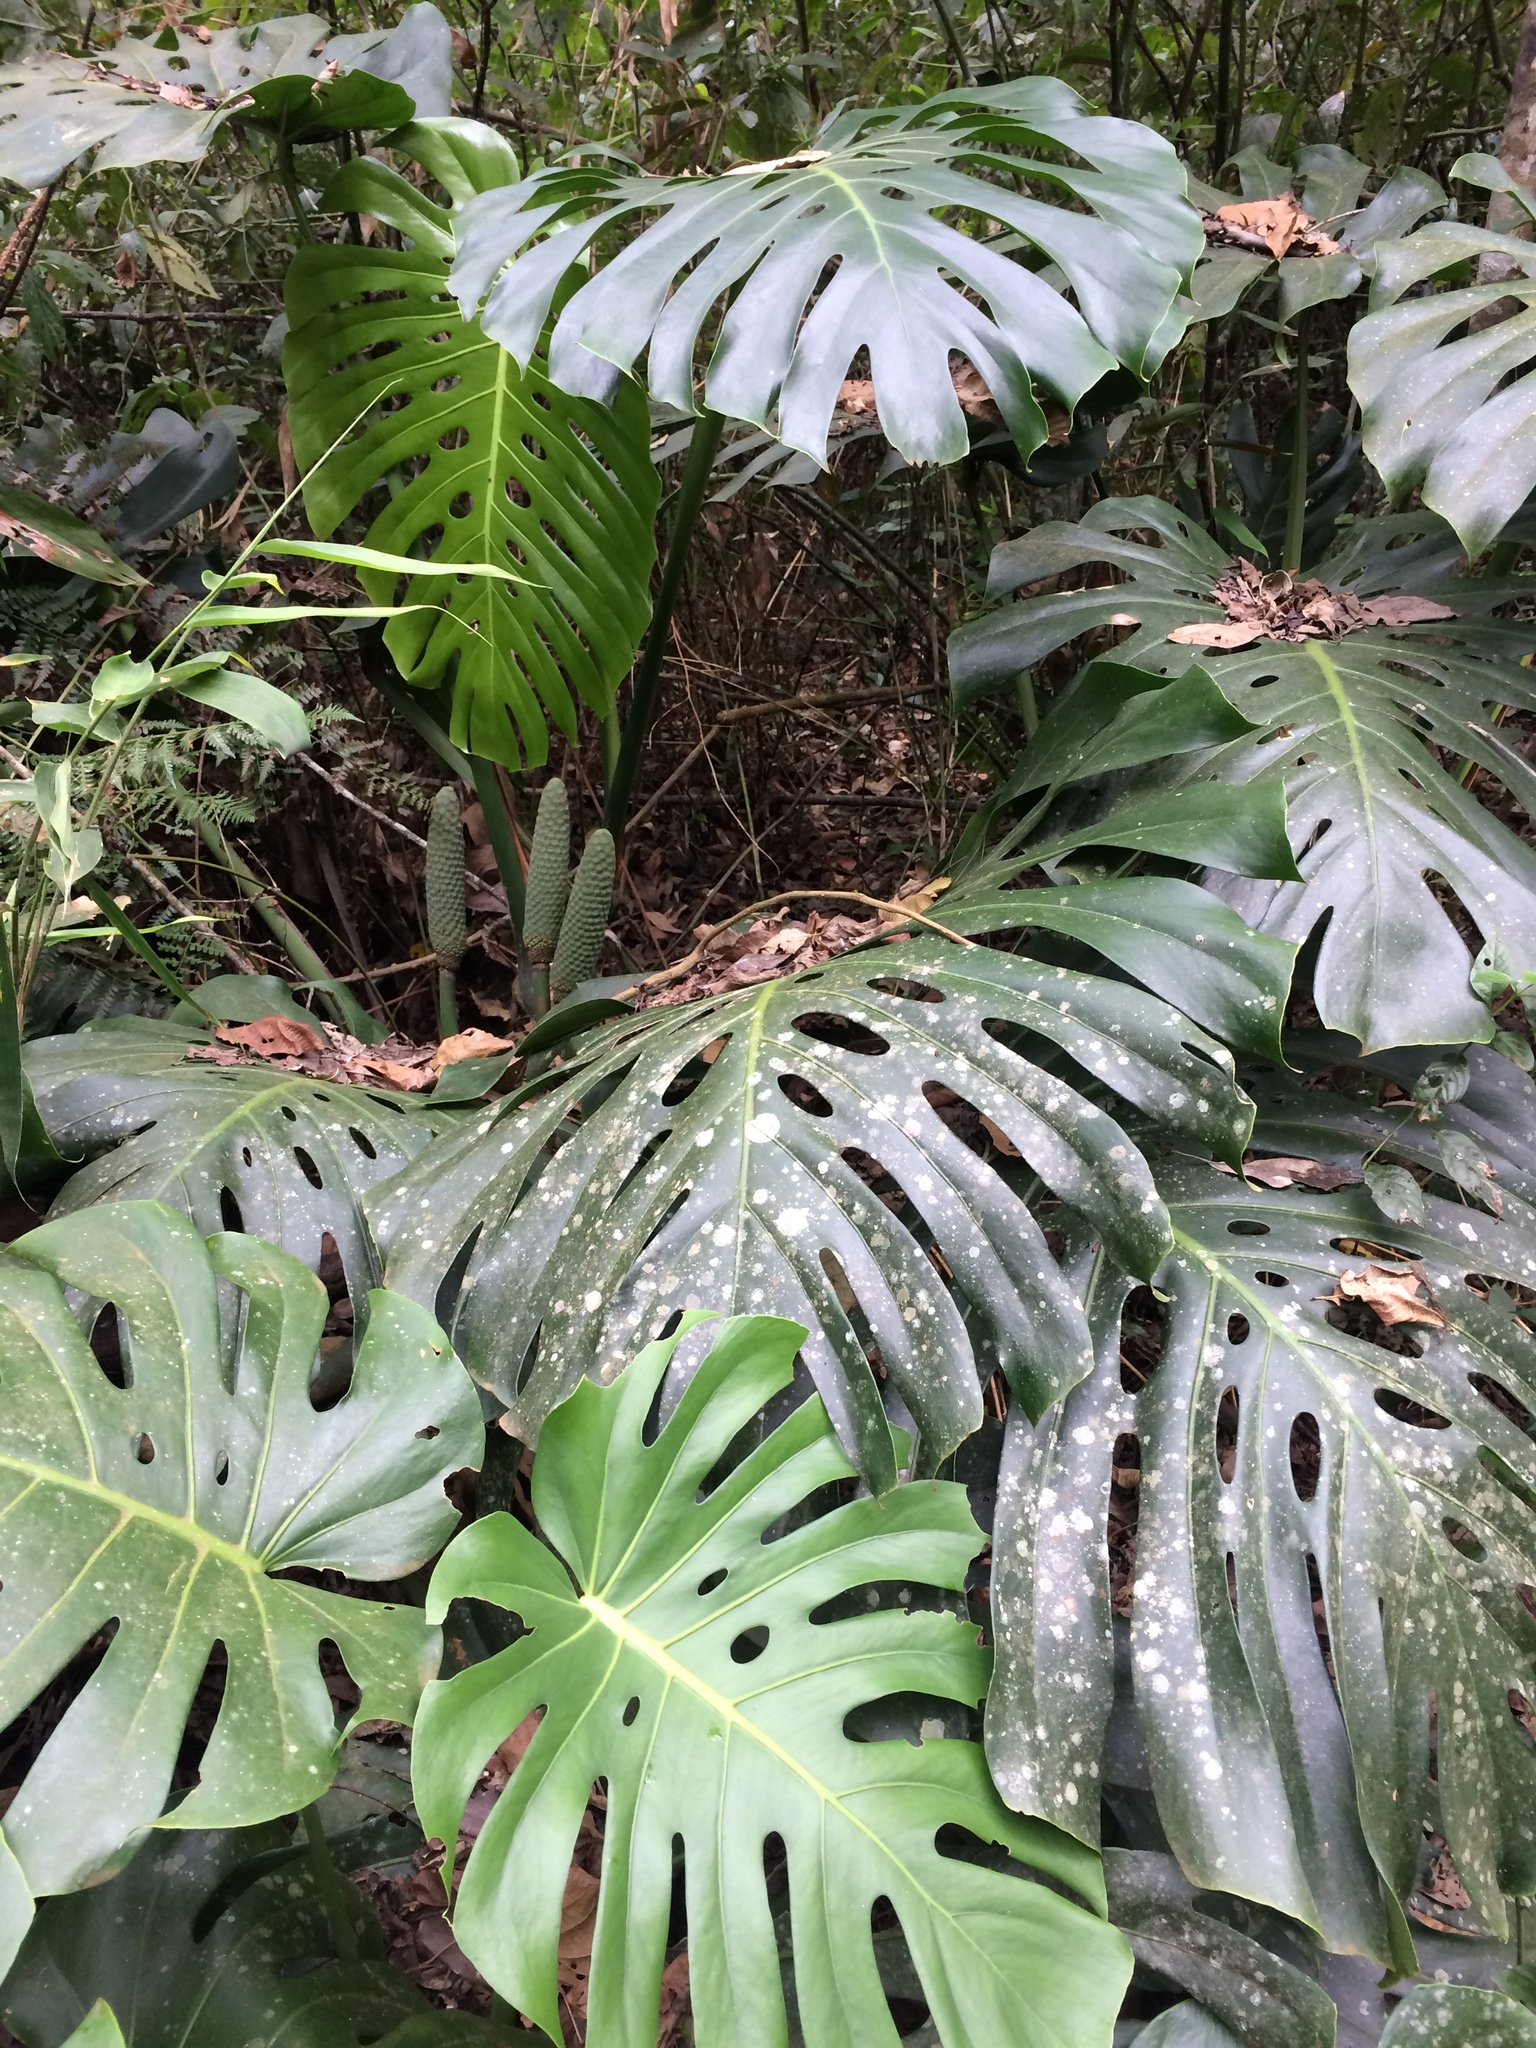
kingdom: Plantae
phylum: Tracheophyta
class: Liliopsida
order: Alismatales
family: Araceae
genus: Monstera
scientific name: Monstera deliciosa
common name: Cut-leaf-philodendron
